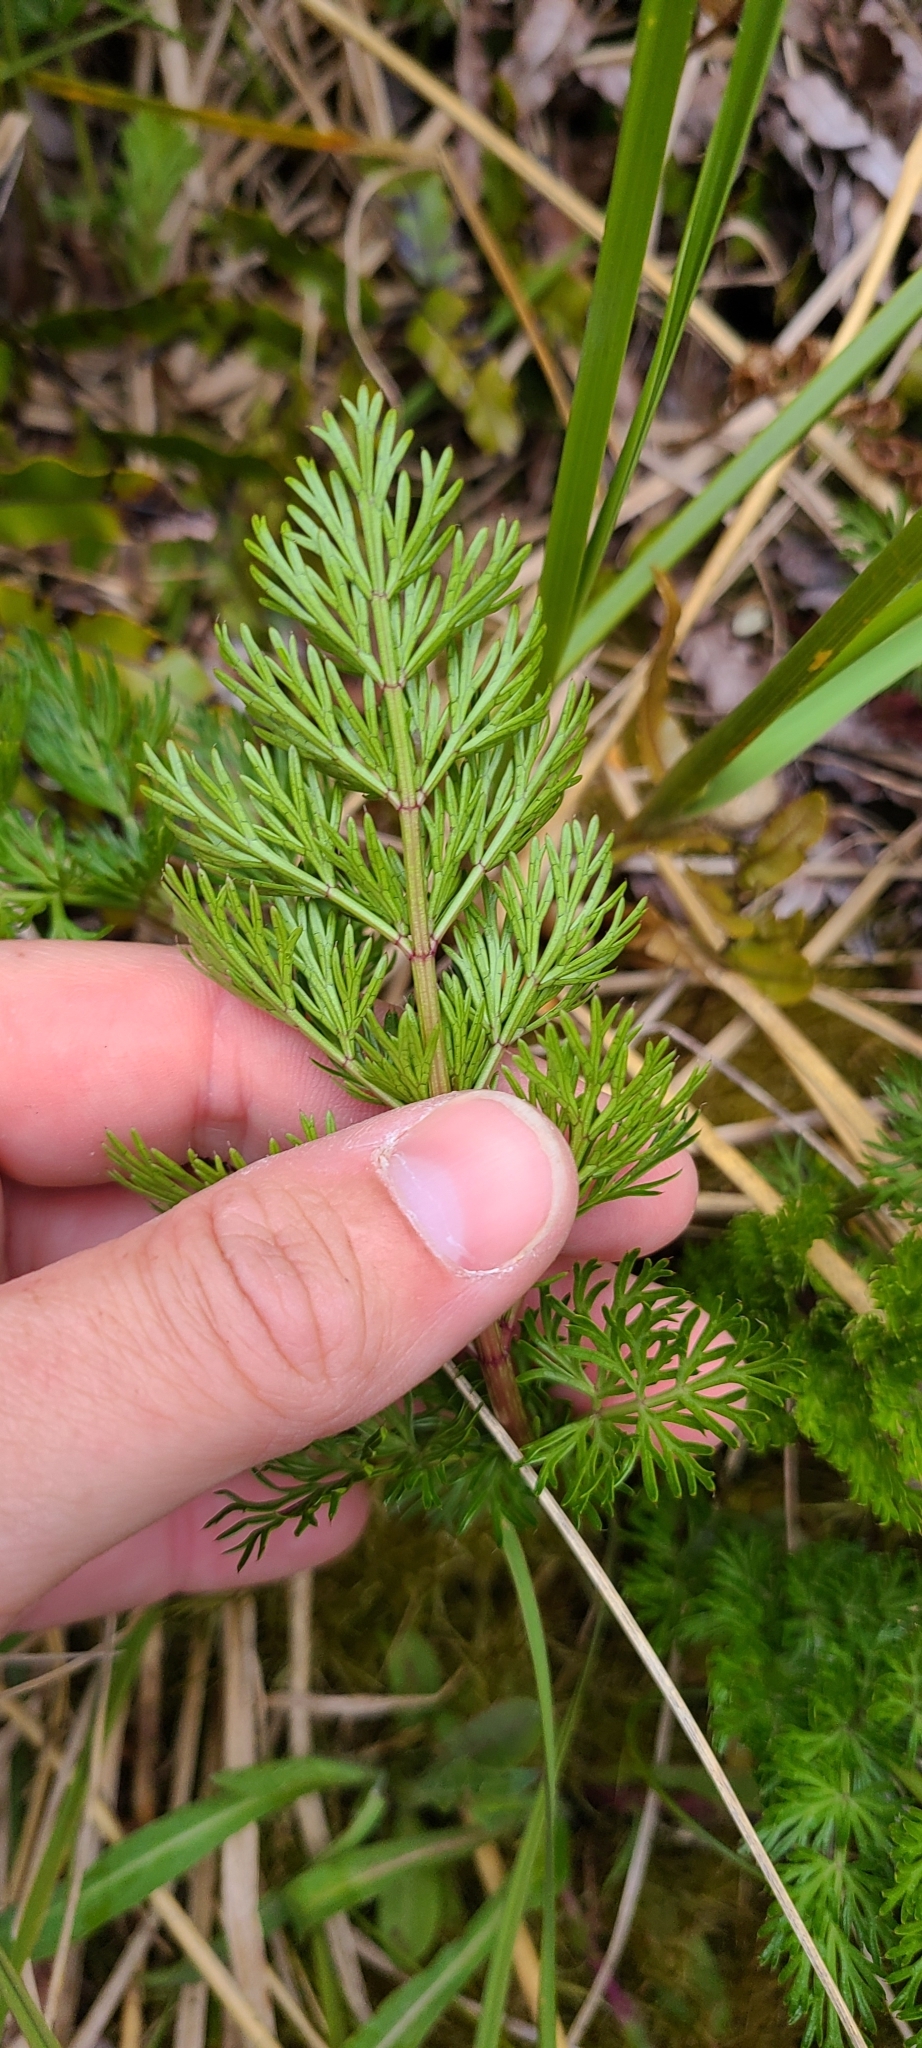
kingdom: Plantae
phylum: Tracheophyta
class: Magnoliopsida
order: Apiales
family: Apiaceae
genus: Anisotome
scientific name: Anisotome haastii
